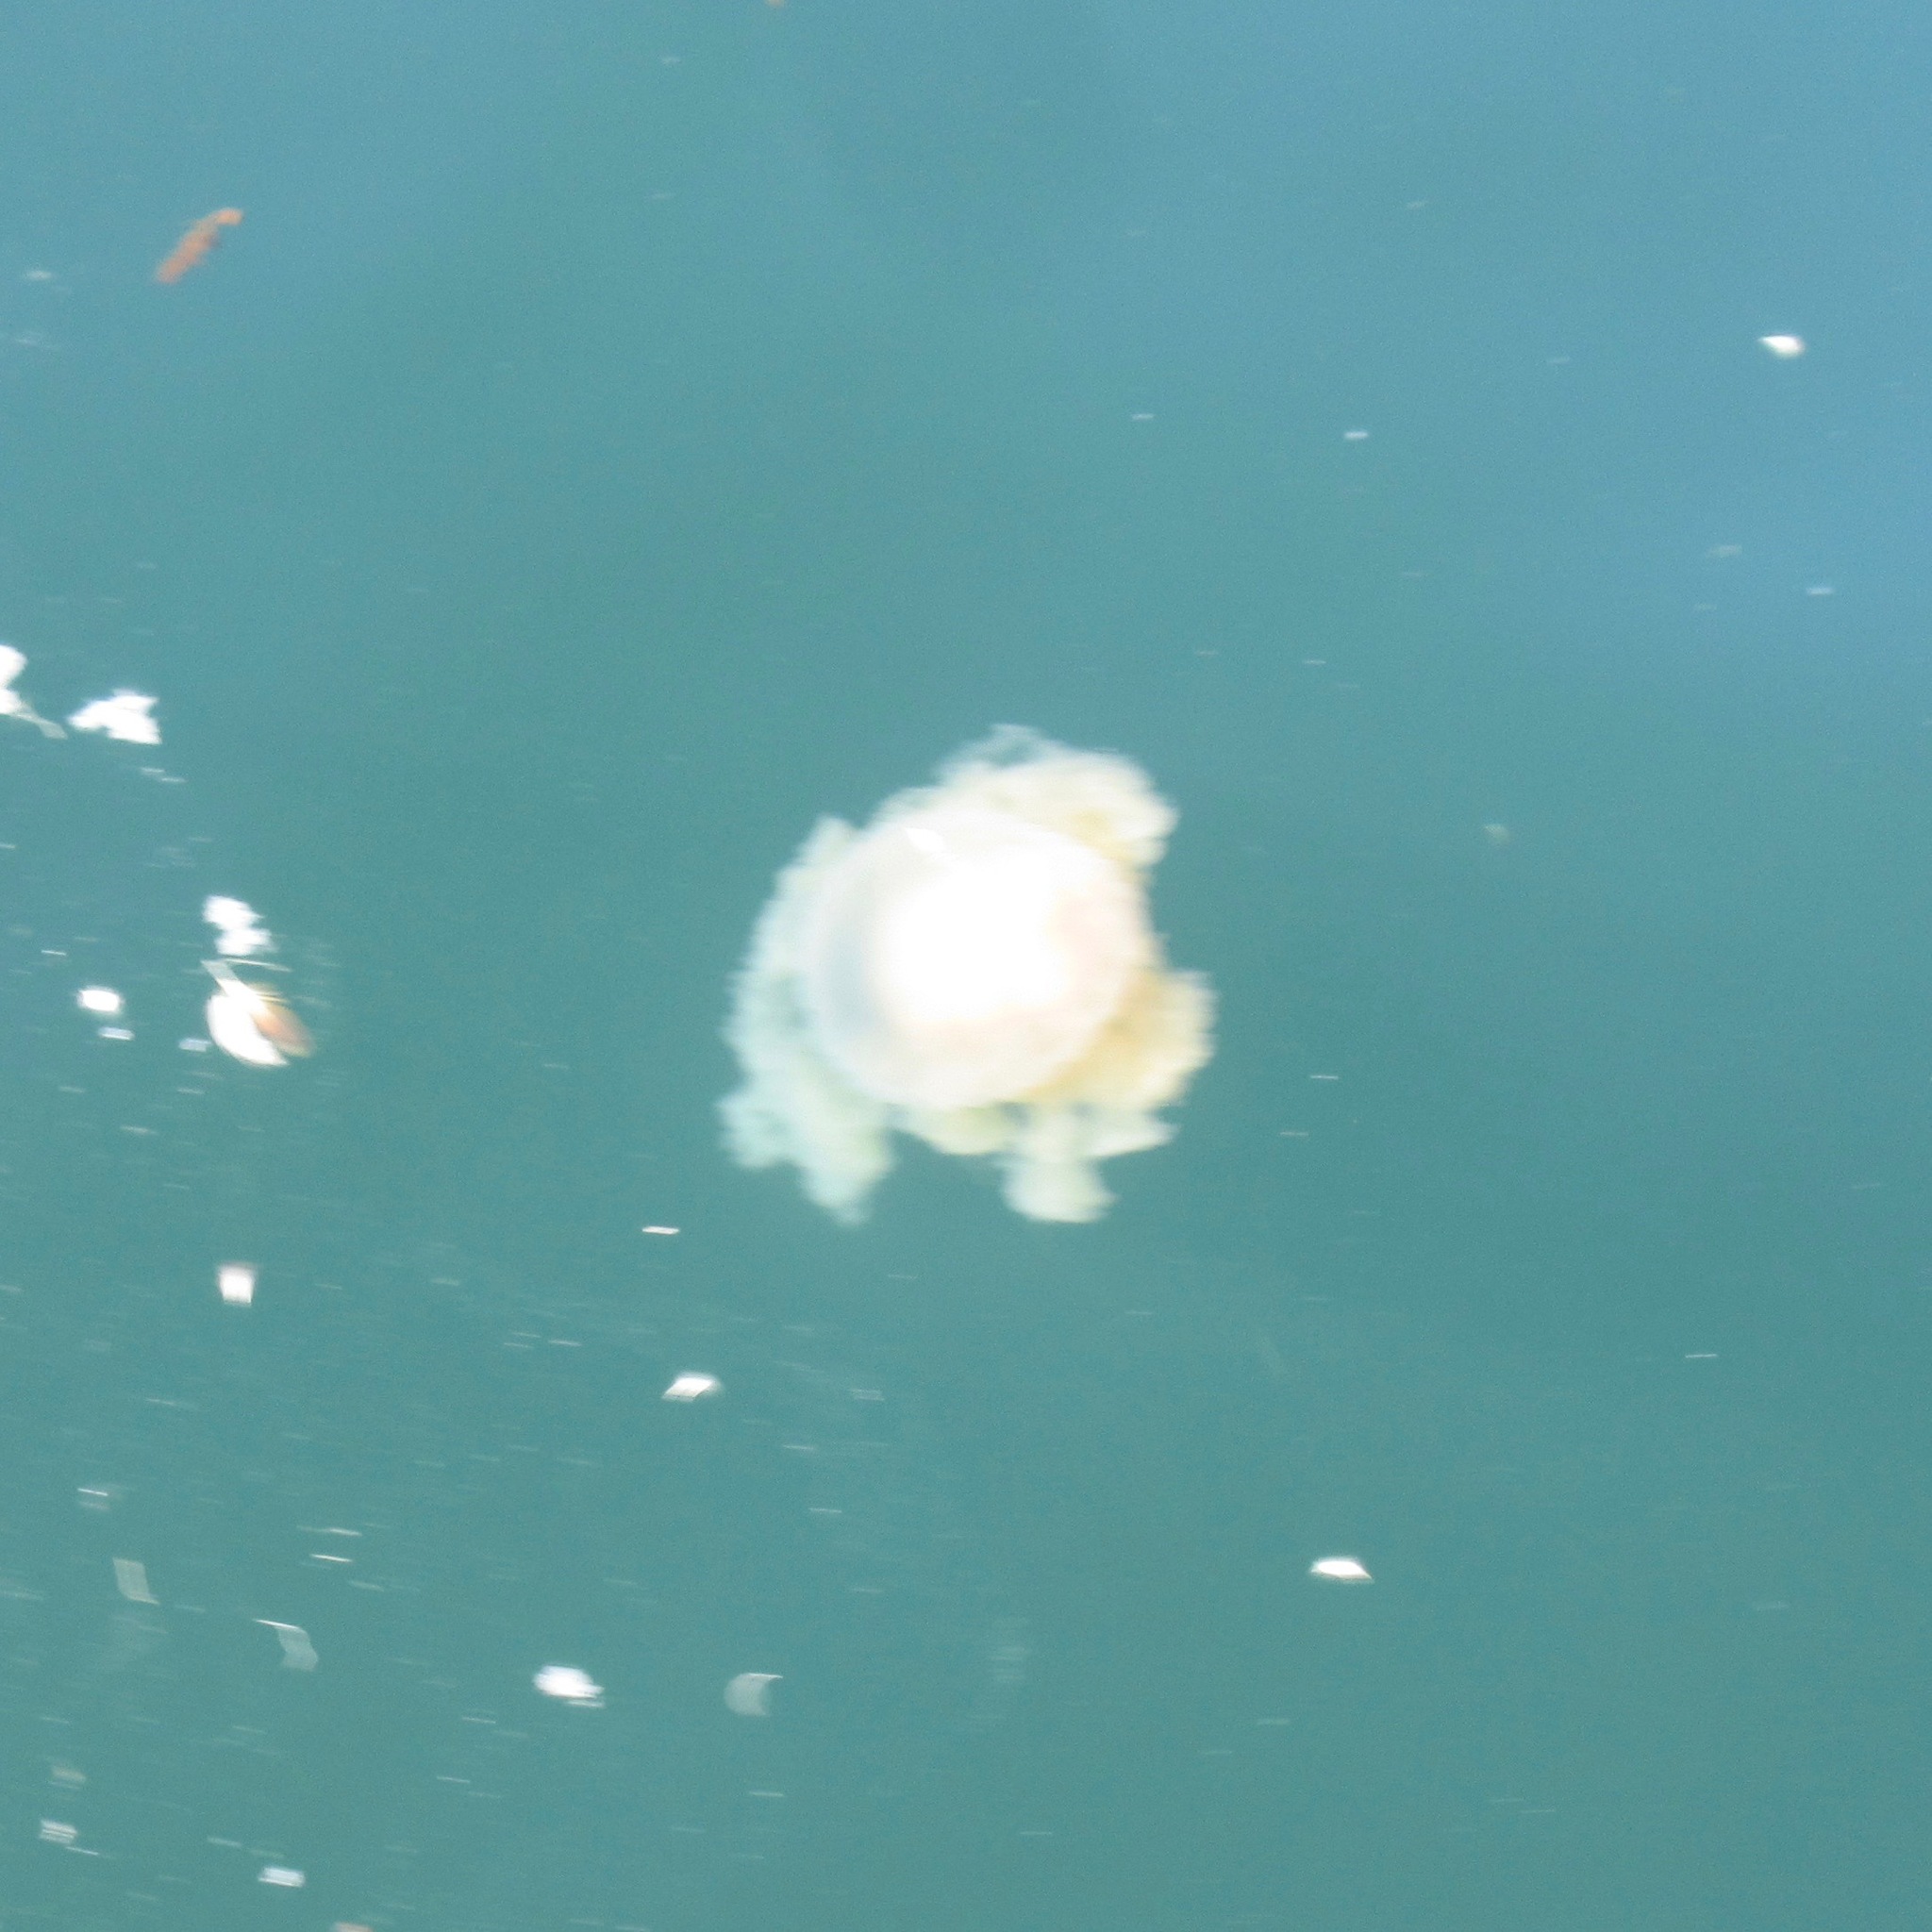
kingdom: Animalia
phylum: Cnidaria
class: Scyphozoa
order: Semaeostomeae
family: Phacellophoridae
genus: Phacellophora
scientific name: Phacellophora camtschatica
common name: Fried-egg jellyfish
